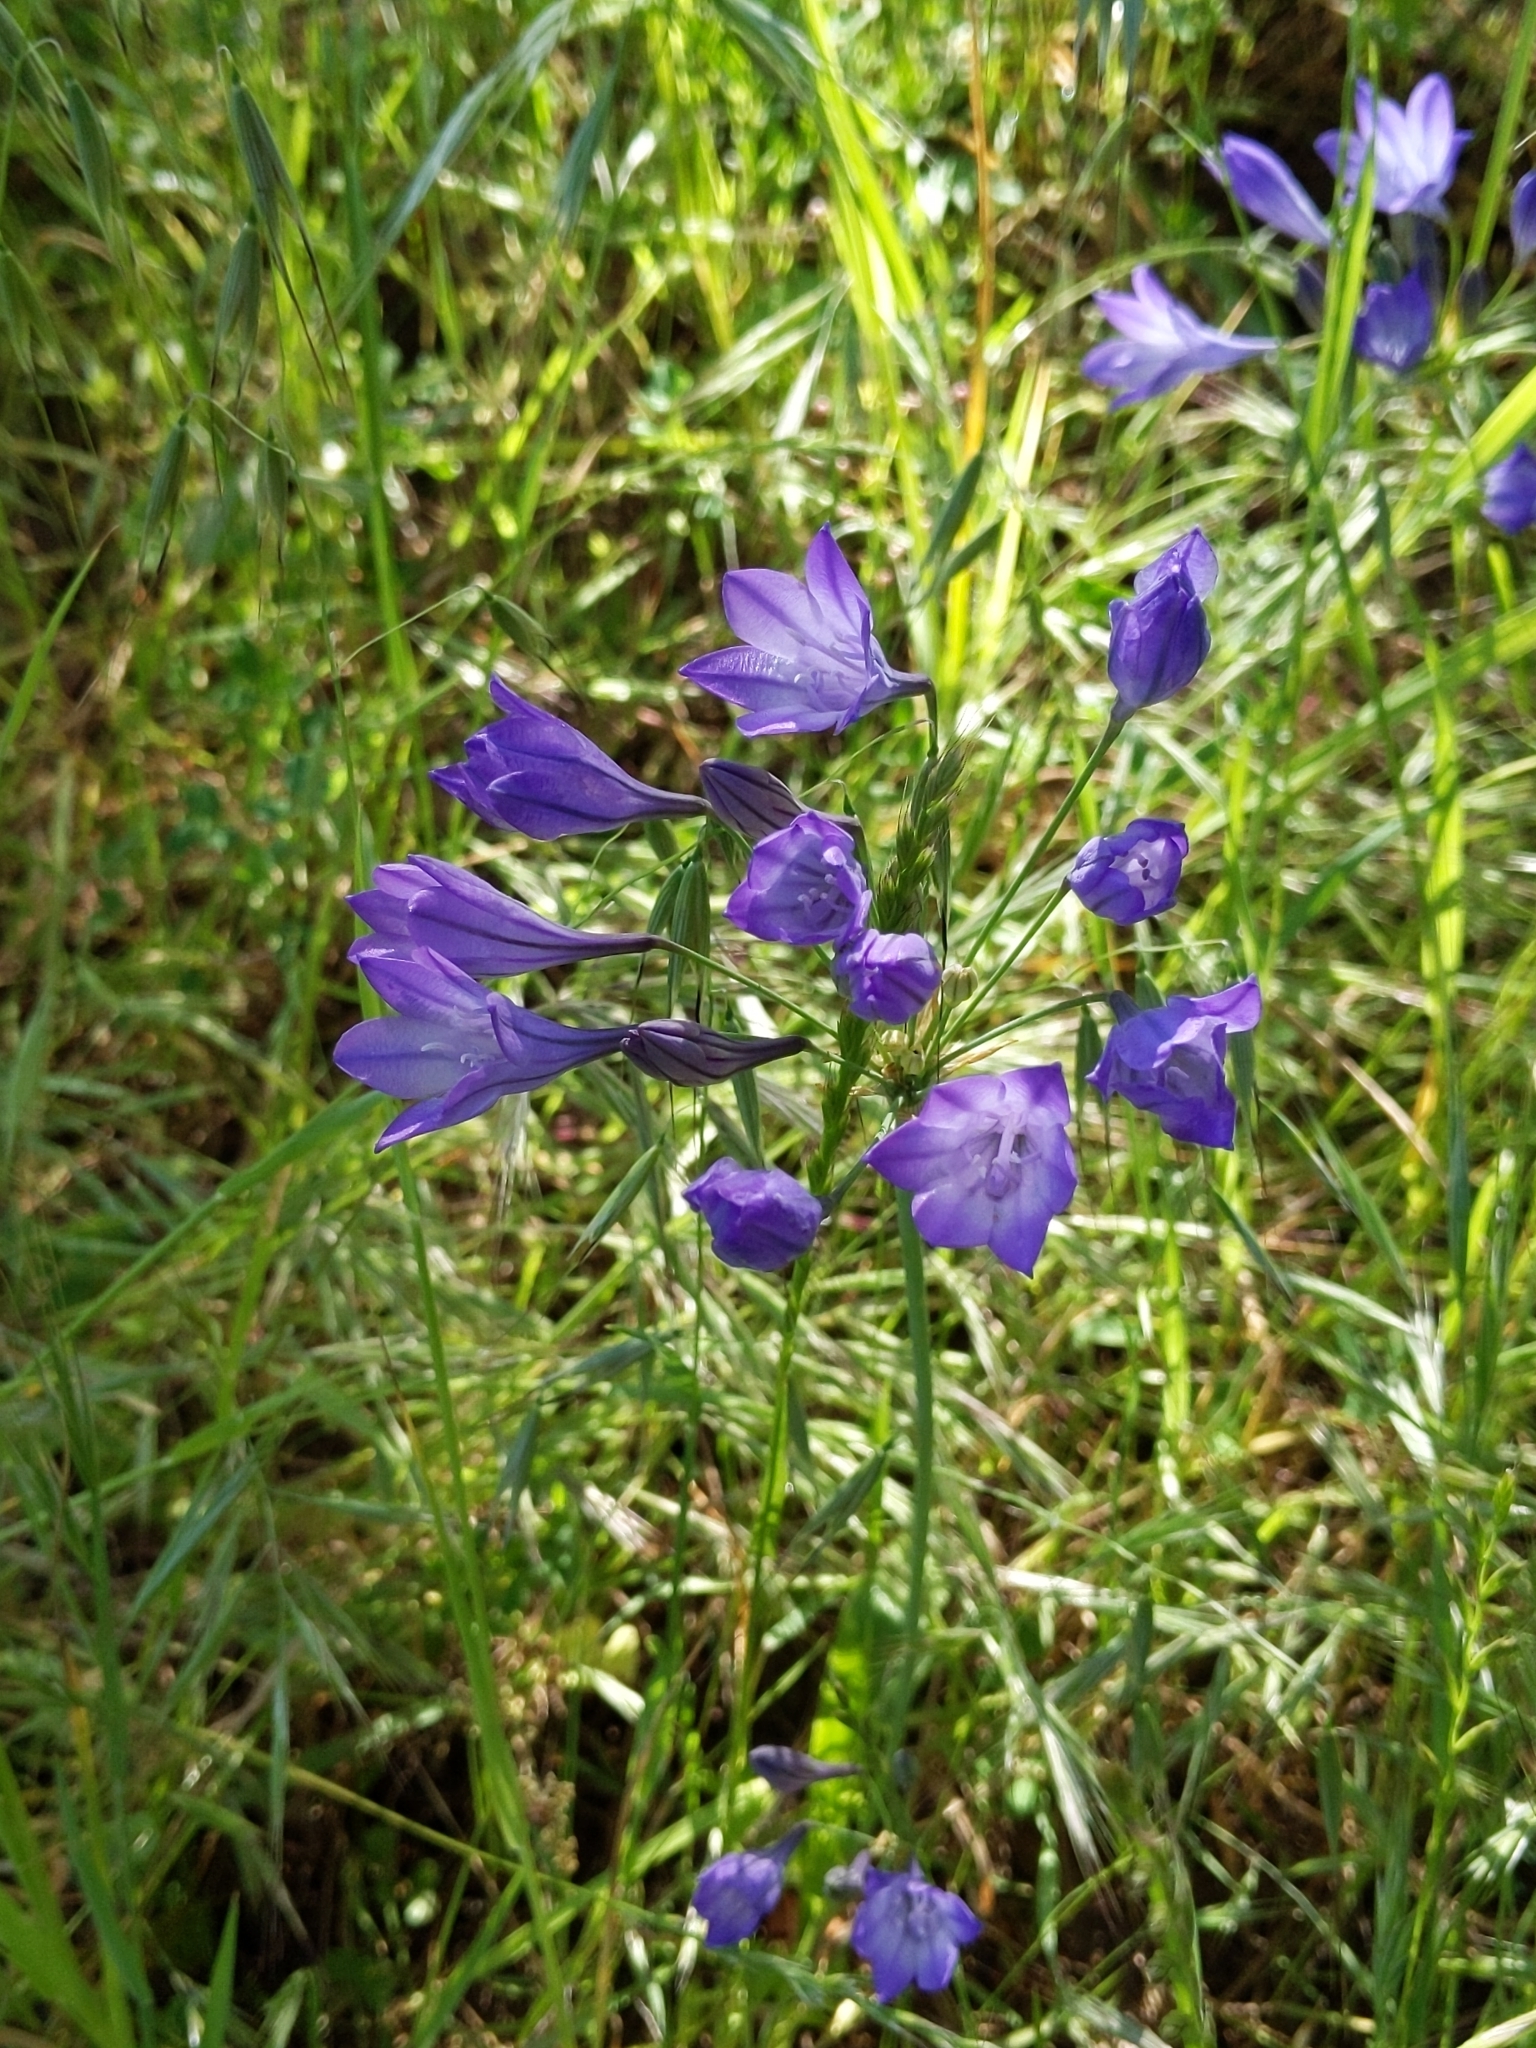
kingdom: Plantae
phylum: Tracheophyta
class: Liliopsida
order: Asparagales
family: Asparagaceae
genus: Triteleia
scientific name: Triteleia laxa
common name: Triplet-lily
